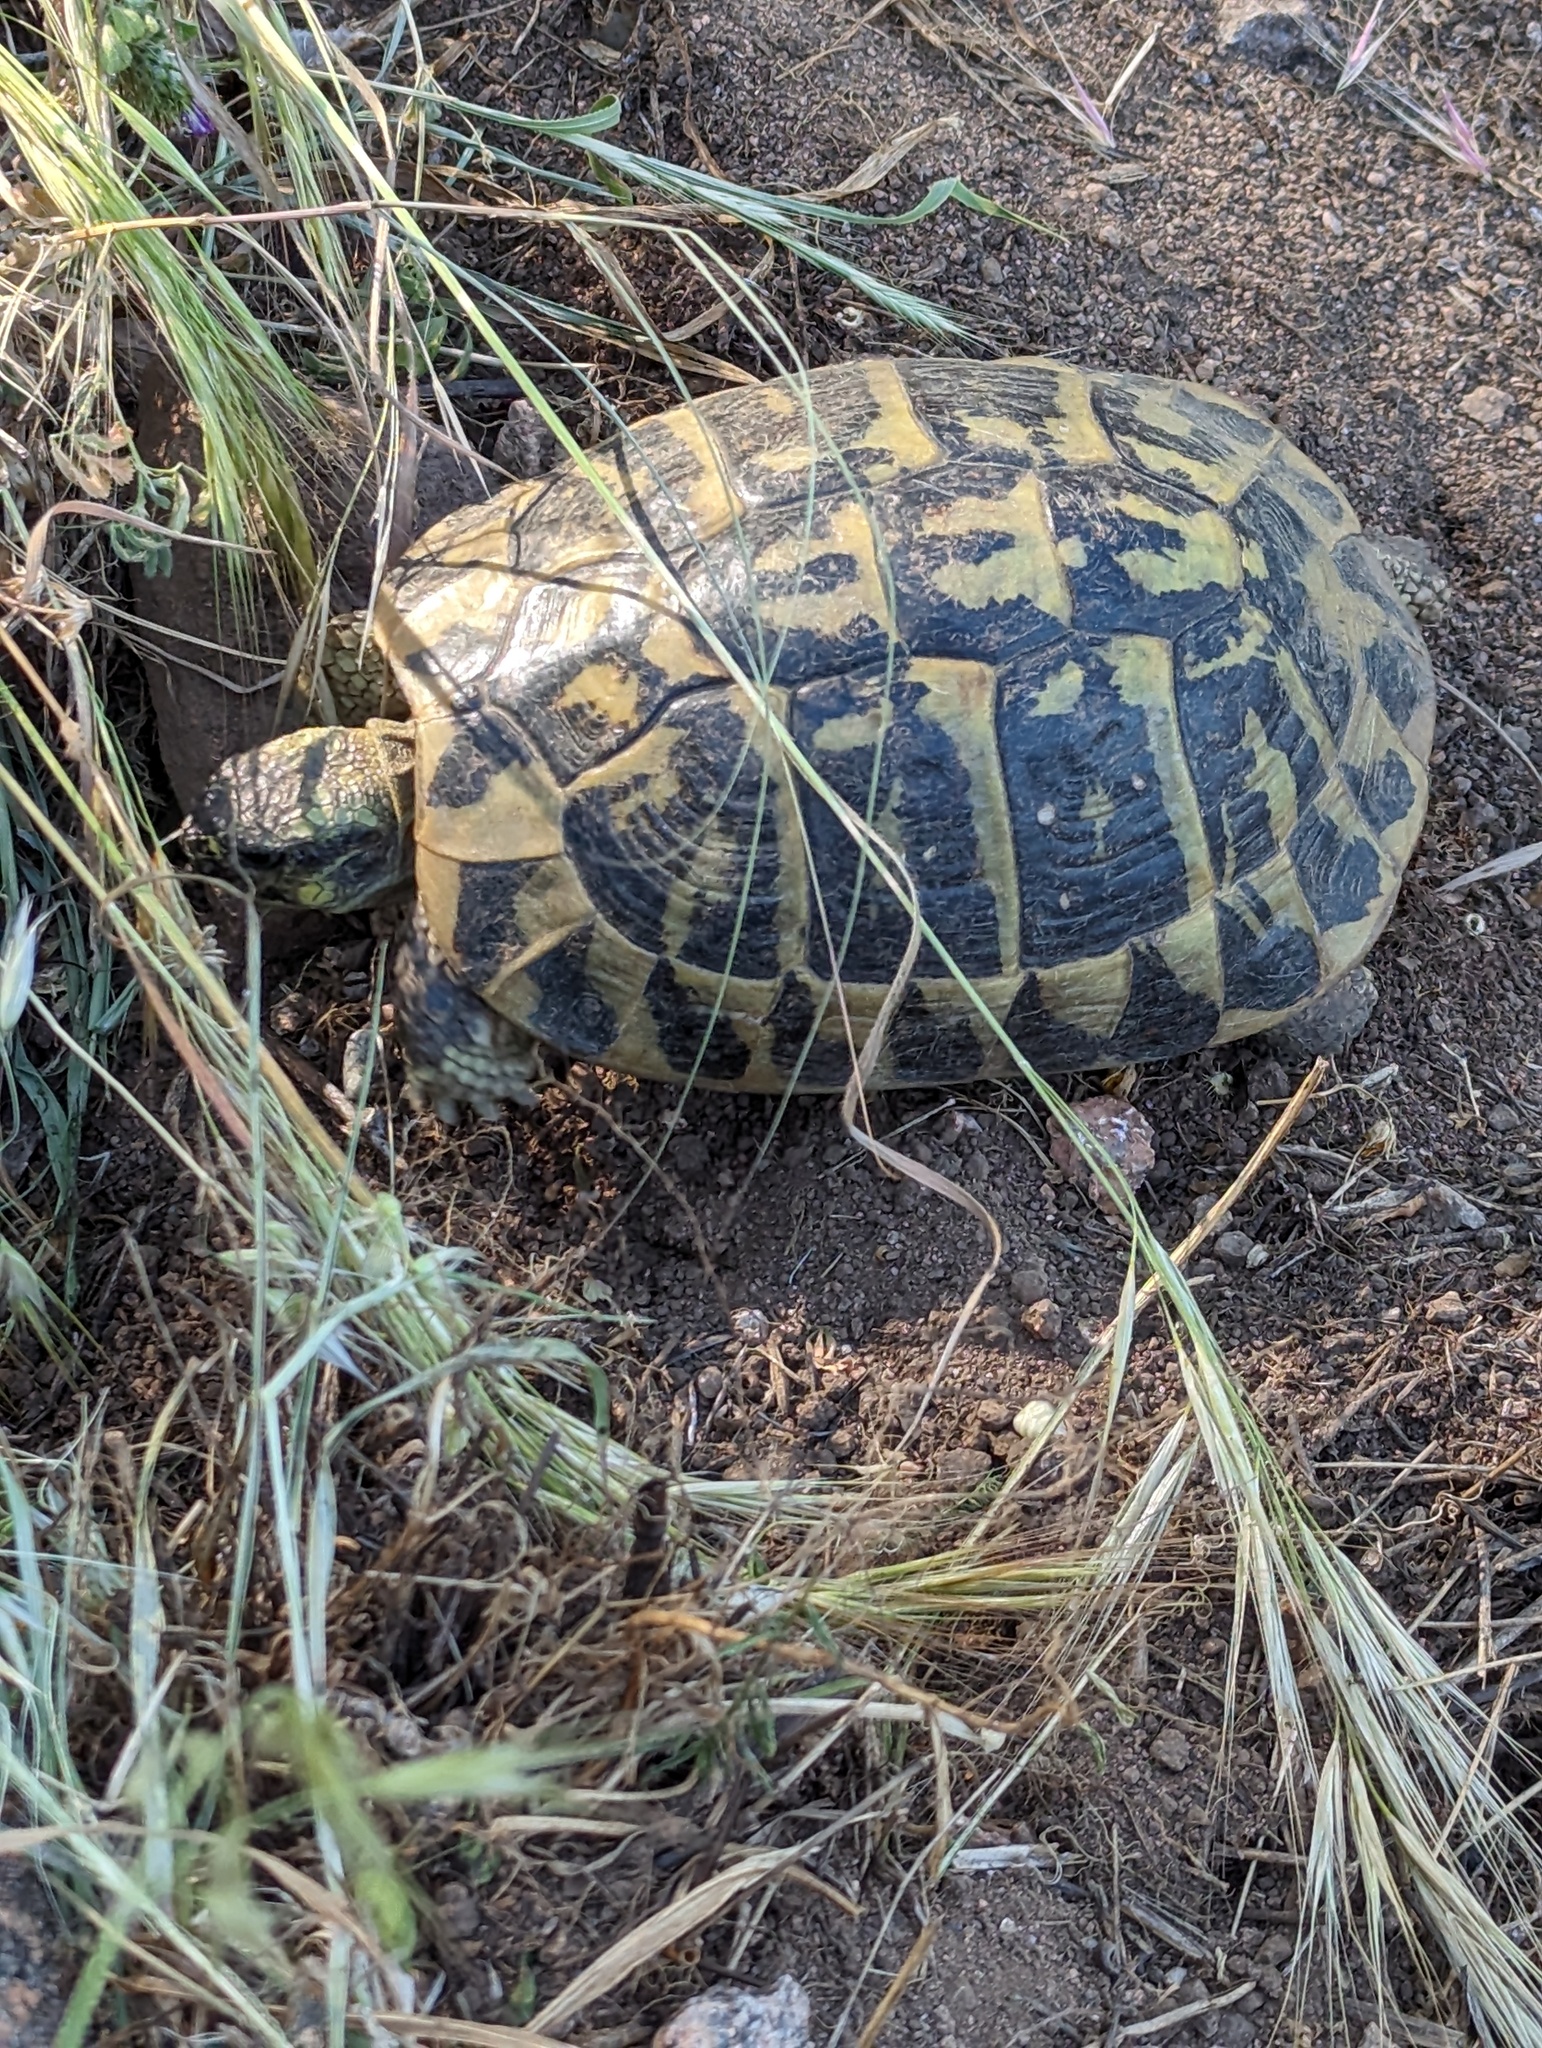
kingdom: Animalia
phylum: Chordata
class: Testudines
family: Testudinidae
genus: Testudo
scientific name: Testudo hermanni
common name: Hermann's tortoise
